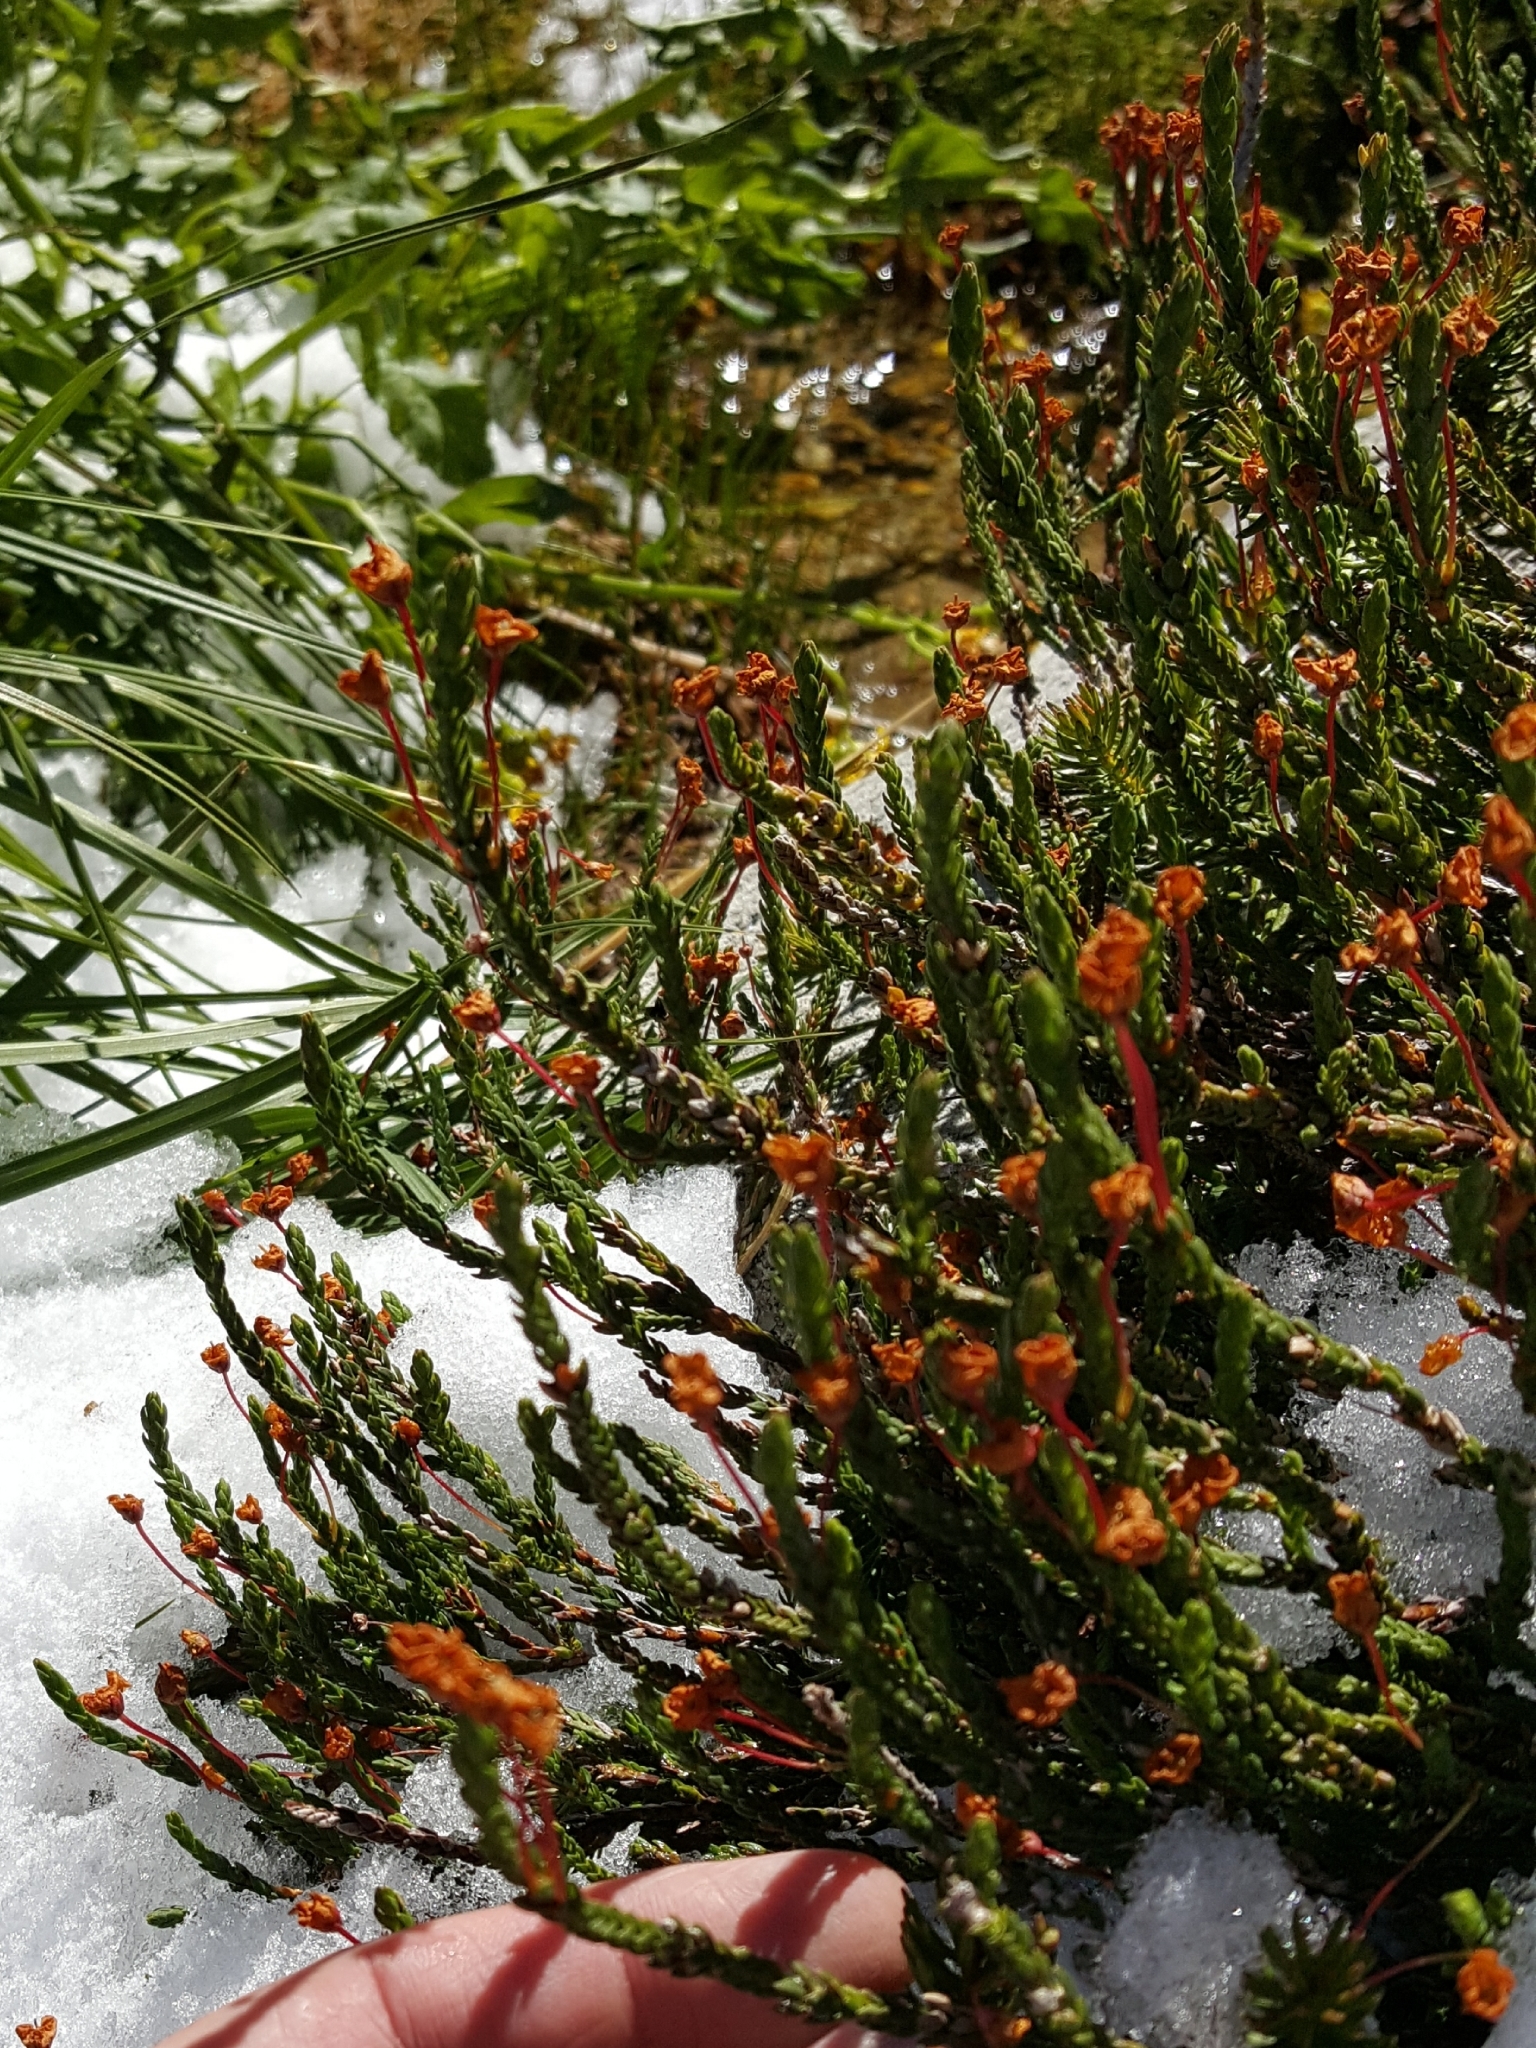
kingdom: Plantae
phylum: Tracheophyta
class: Magnoliopsida
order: Ericales
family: Ericaceae
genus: Cassiope
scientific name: Cassiope mertensiana
